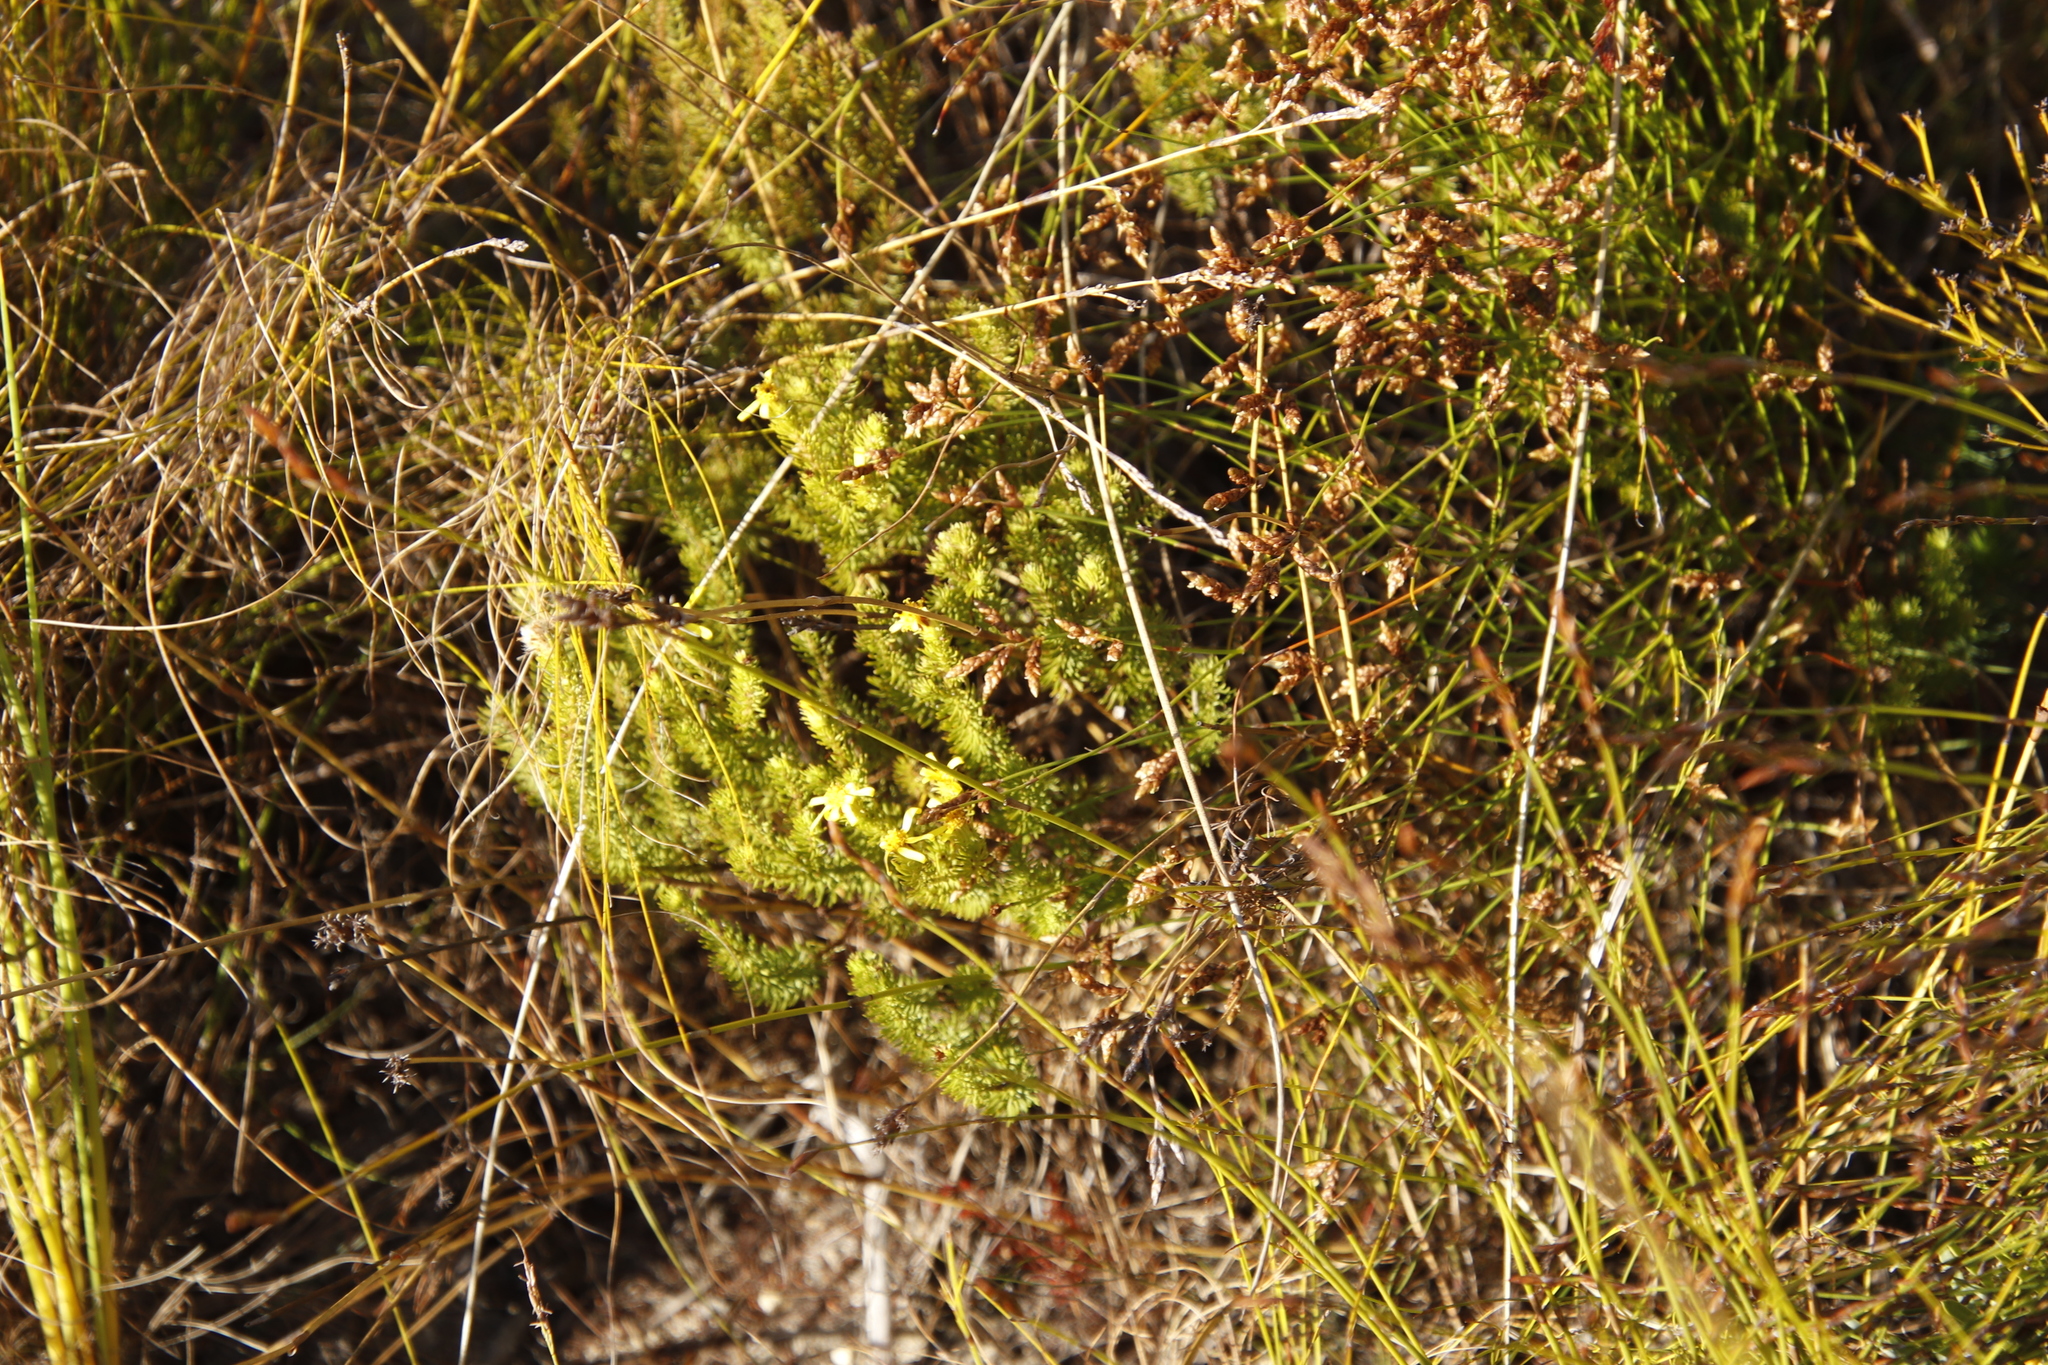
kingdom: Plantae
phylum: Tracheophyta
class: Magnoliopsida
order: Asterales
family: Asteraceae
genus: Senecio
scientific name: Senecio pinifolius
